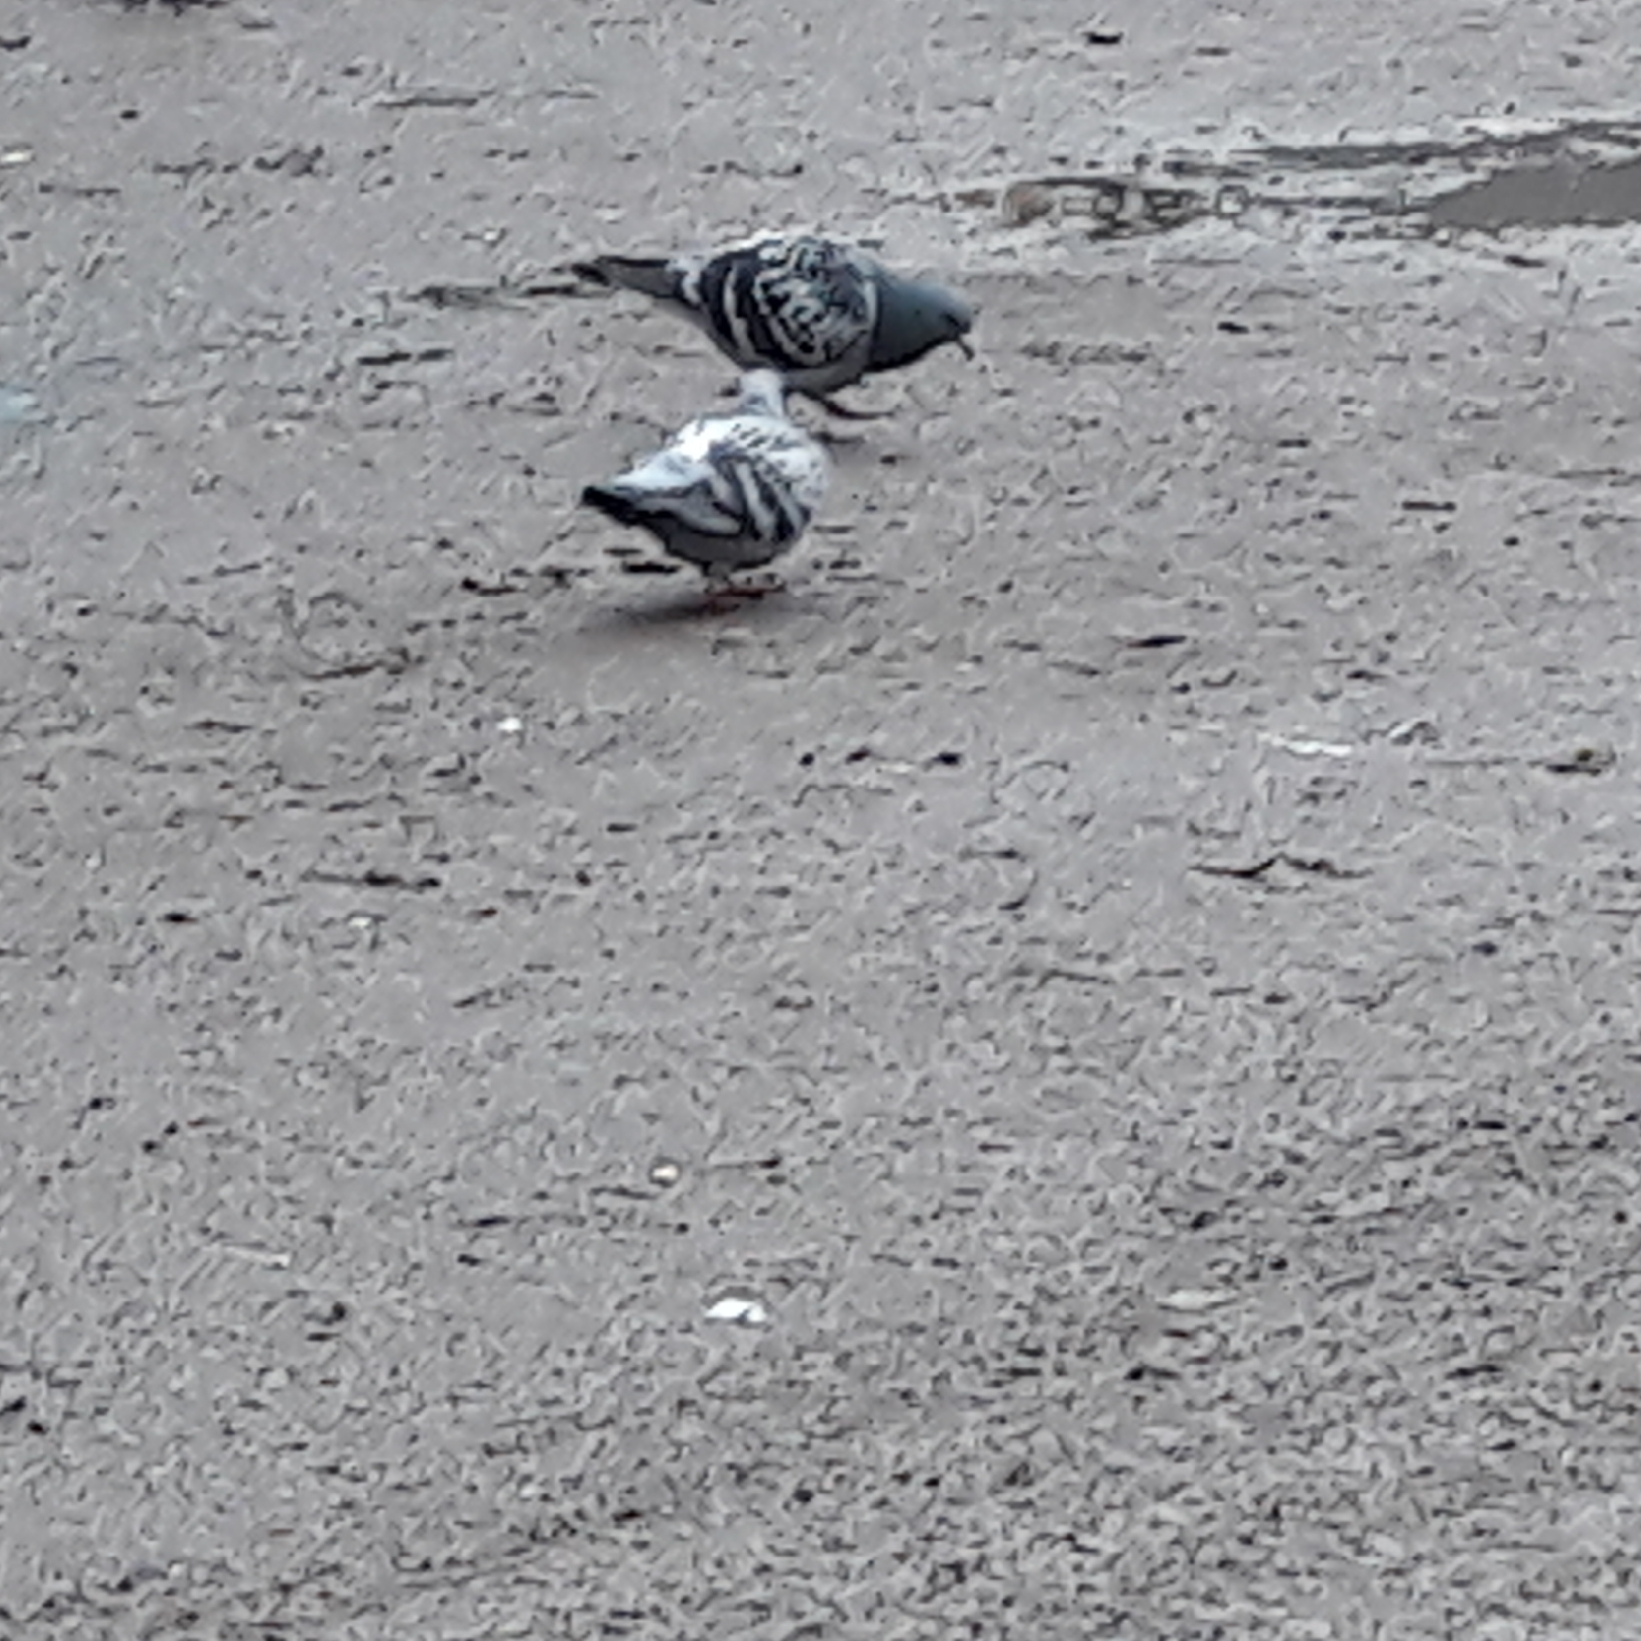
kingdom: Animalia
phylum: Chordata
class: Aves
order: Columbiformes
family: Columbidae
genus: Columba
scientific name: Columba livia
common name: Rock pigeon
